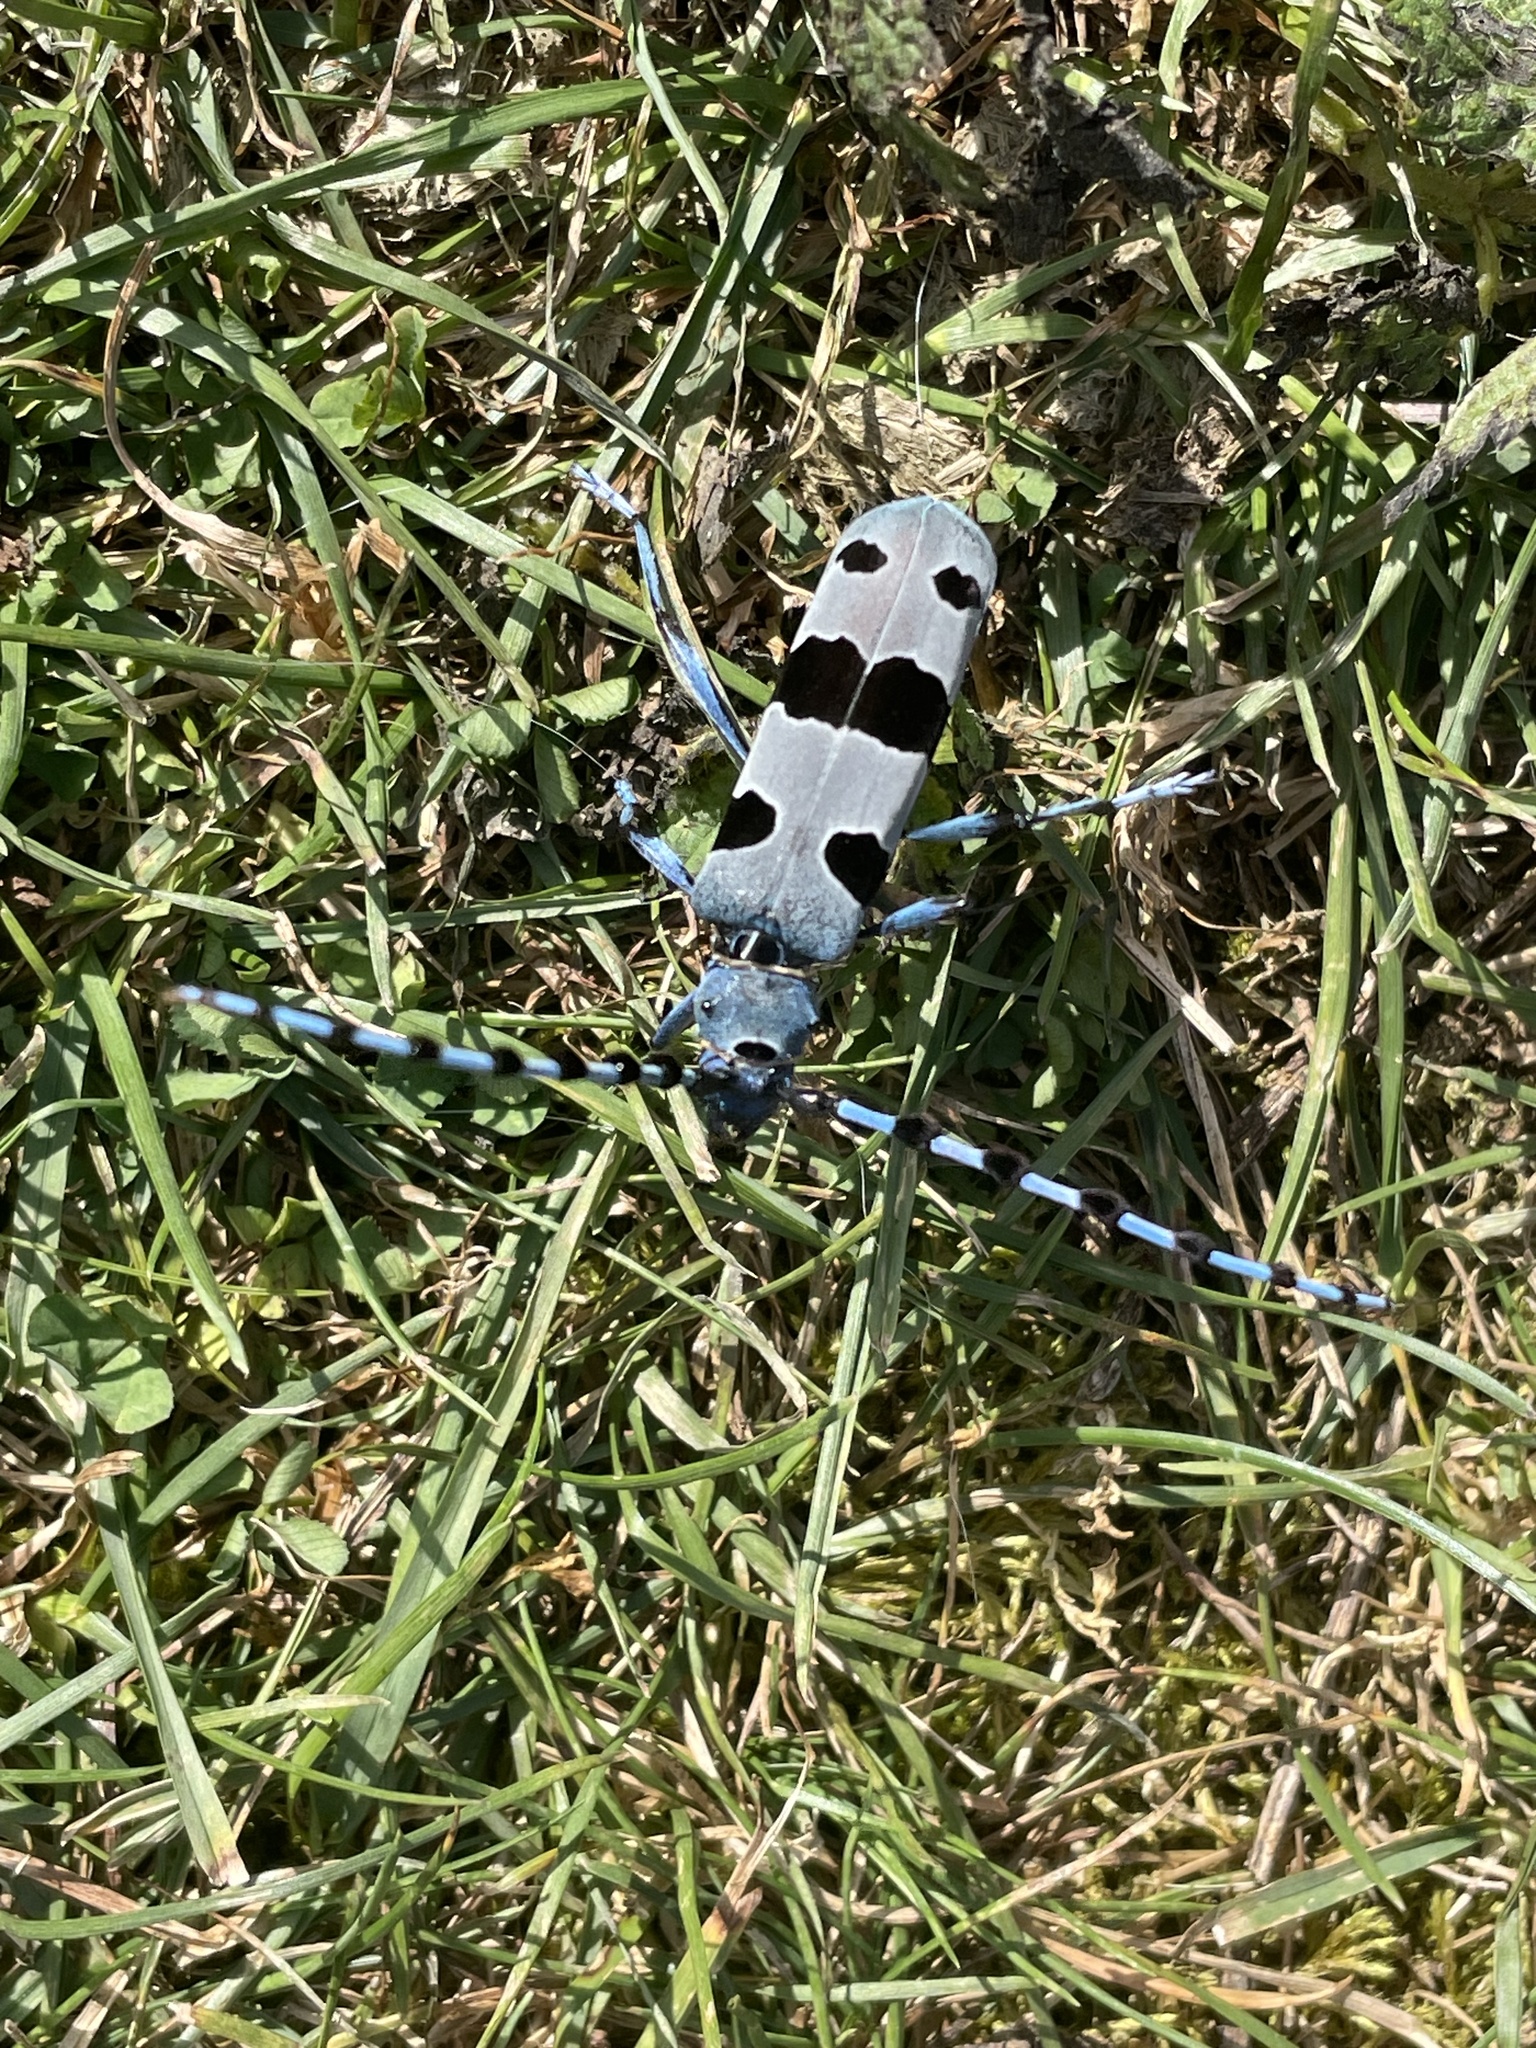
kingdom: Animalia
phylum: Arthropoda
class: Insecta
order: Coleoptera
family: Cerambycidae
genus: Rosalia
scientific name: Rosalia alpina
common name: Rosalia longicorn
